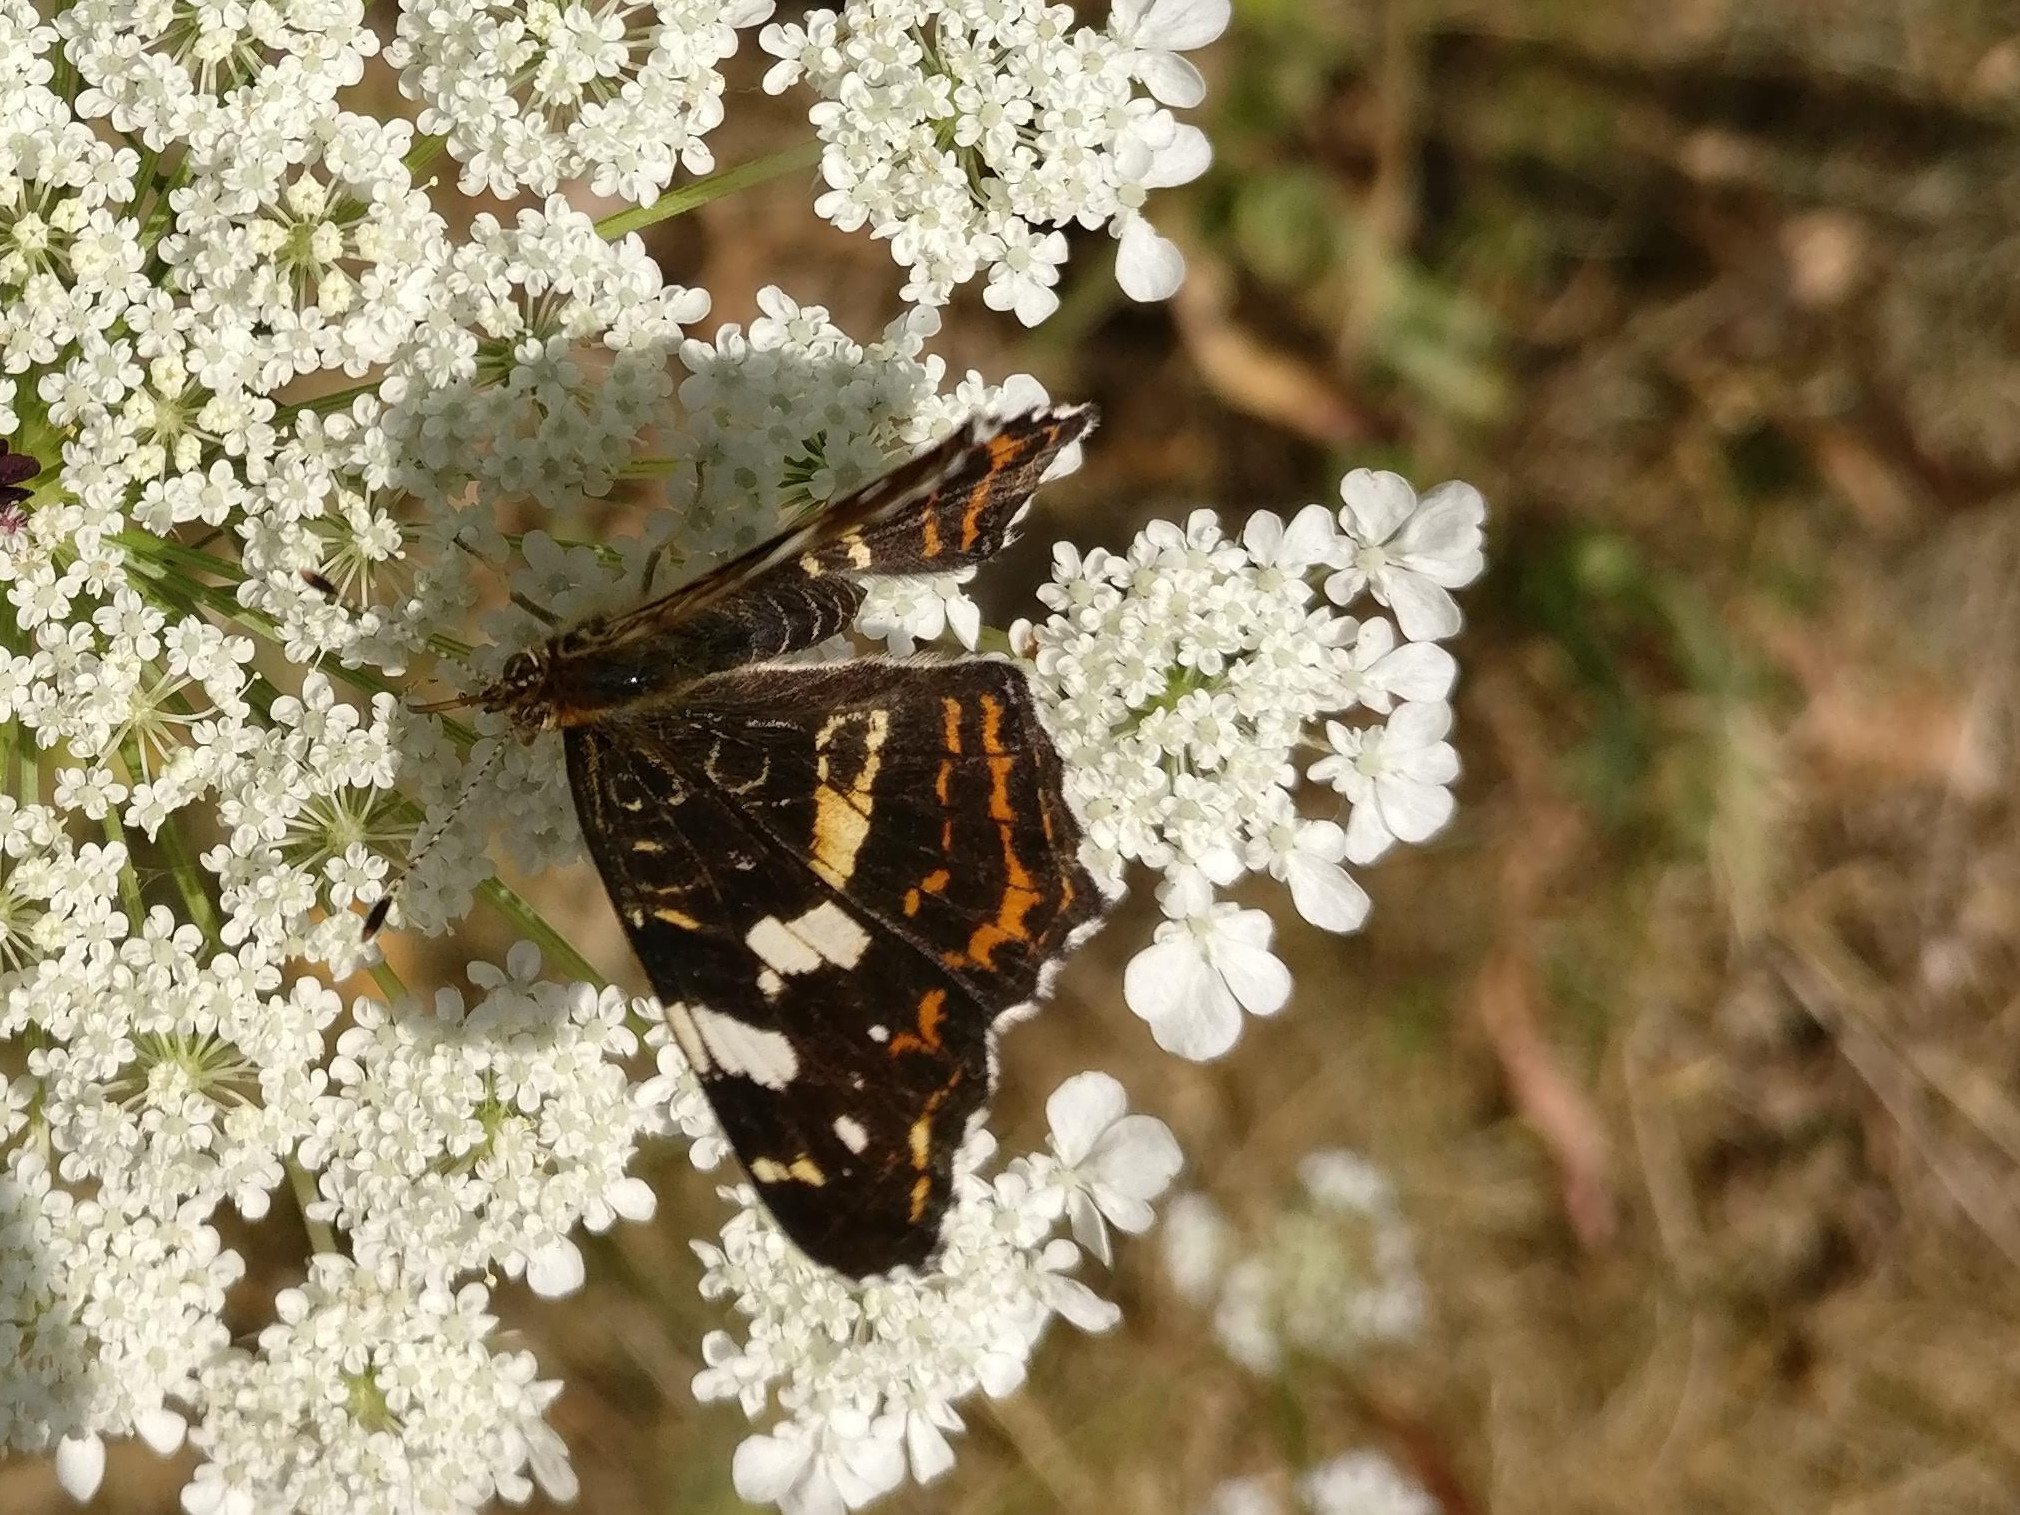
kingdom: Animalia
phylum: Arthropoda
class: Insecta
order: Lepidoptera
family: Nymphalidae
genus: Araschnia
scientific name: Araschnia levana
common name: Map butterfly
